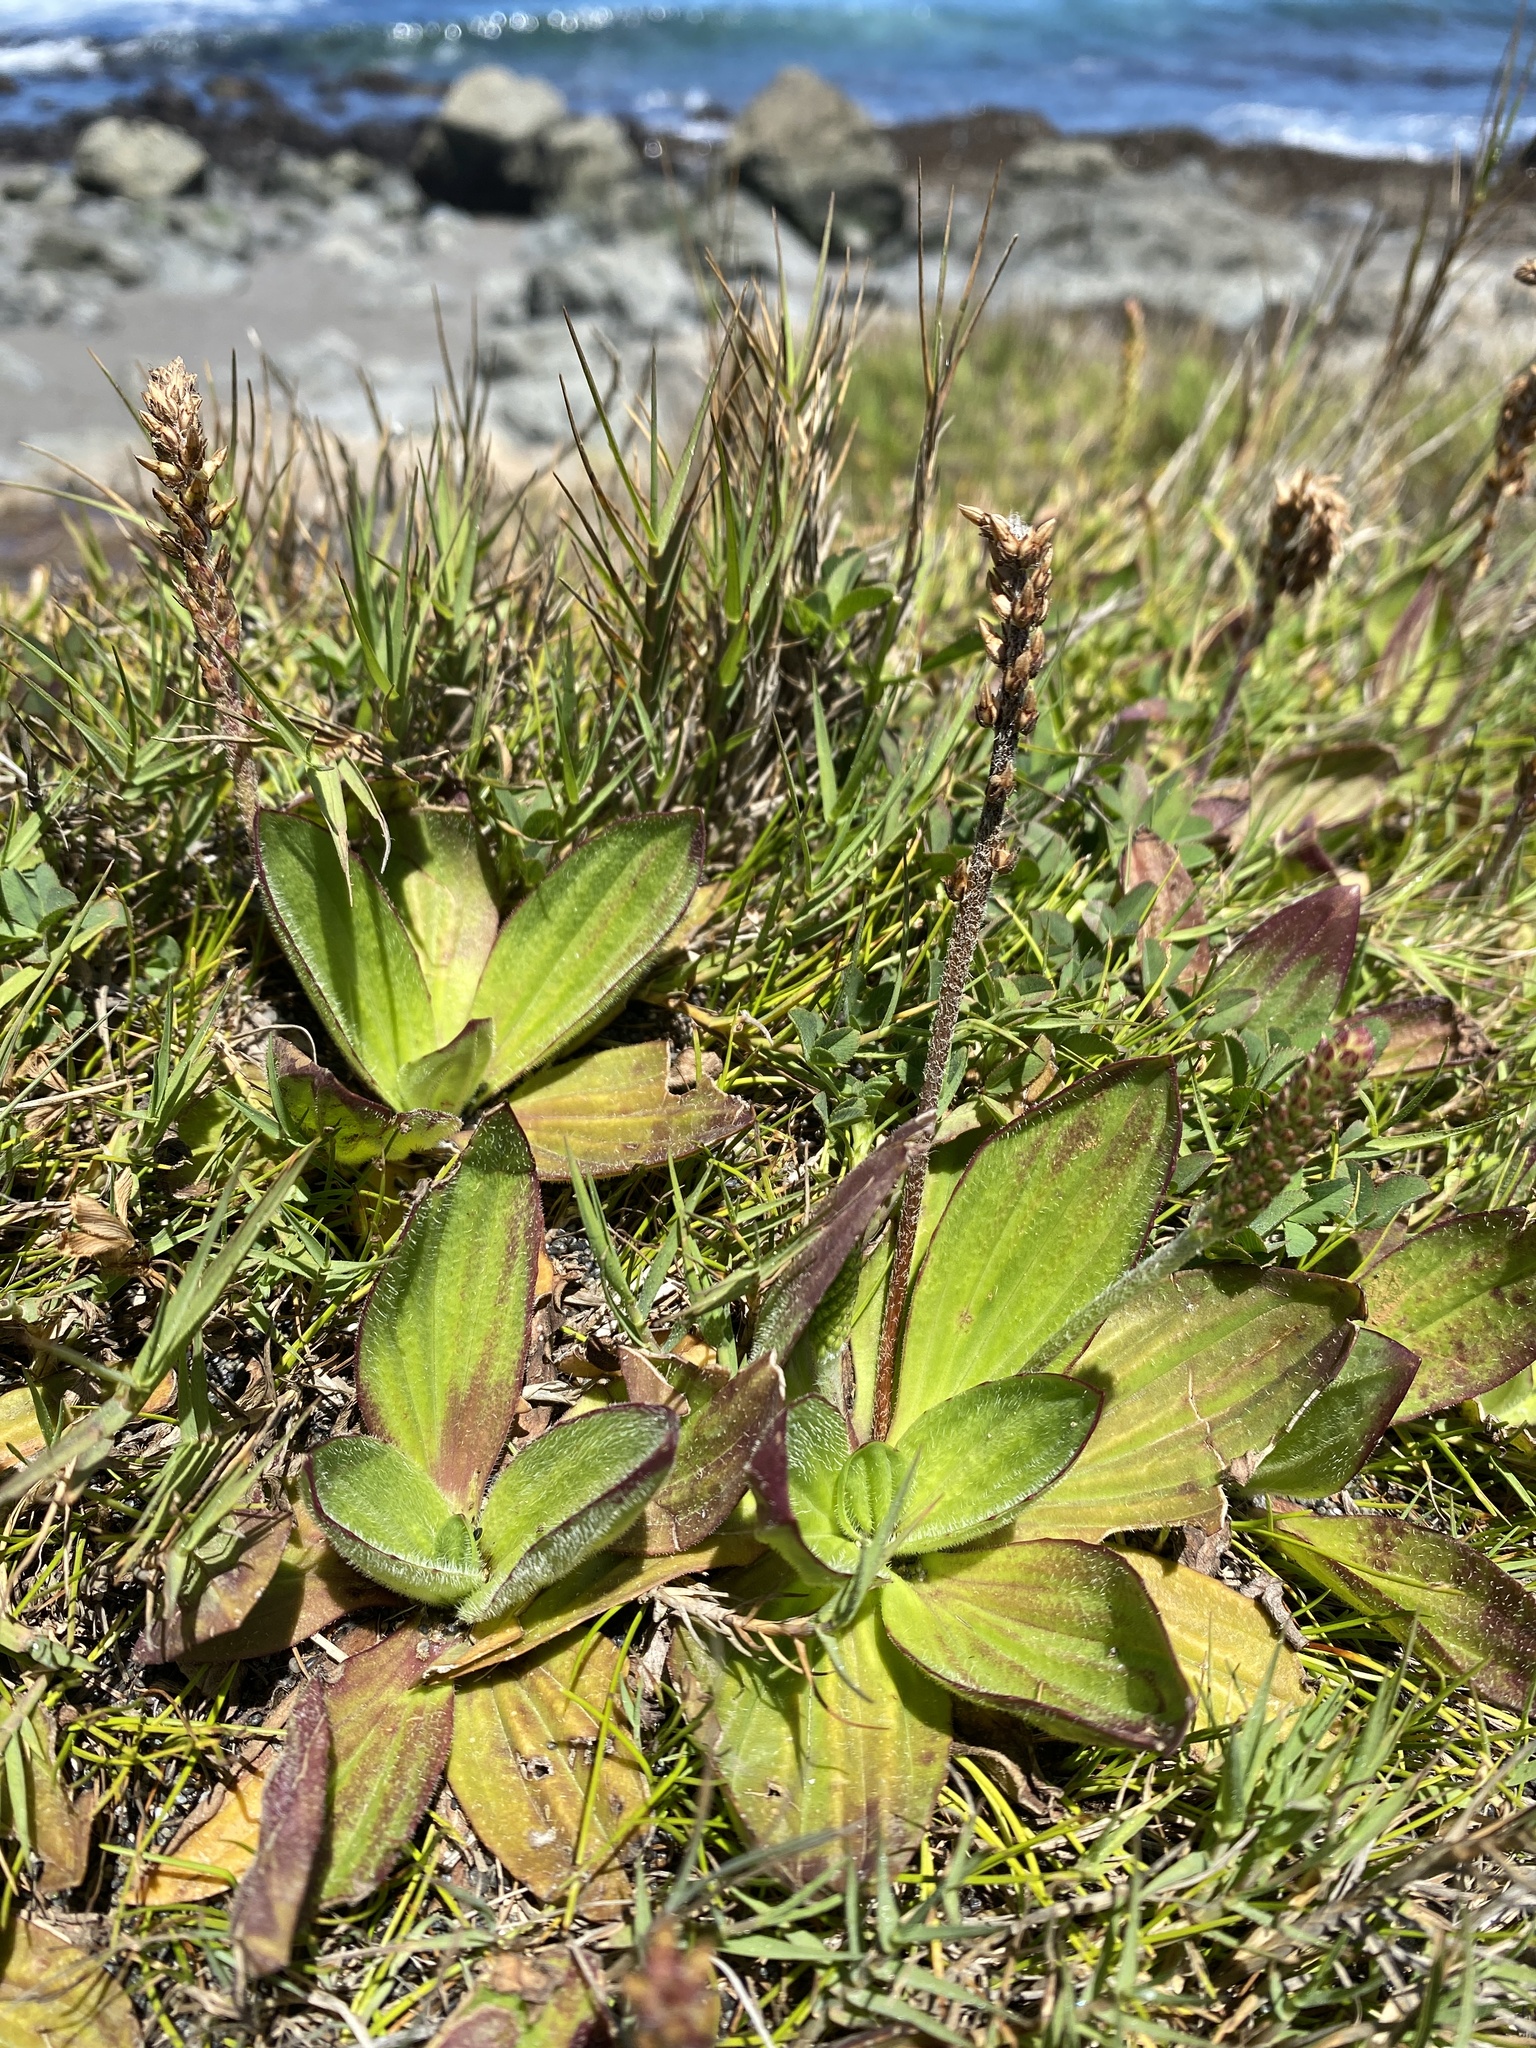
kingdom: Plantae
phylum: Tracheophyta
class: Magnoliopsida
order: Lamiales
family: Plantaginaceae
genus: Plantago
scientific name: Plantago subnuda
